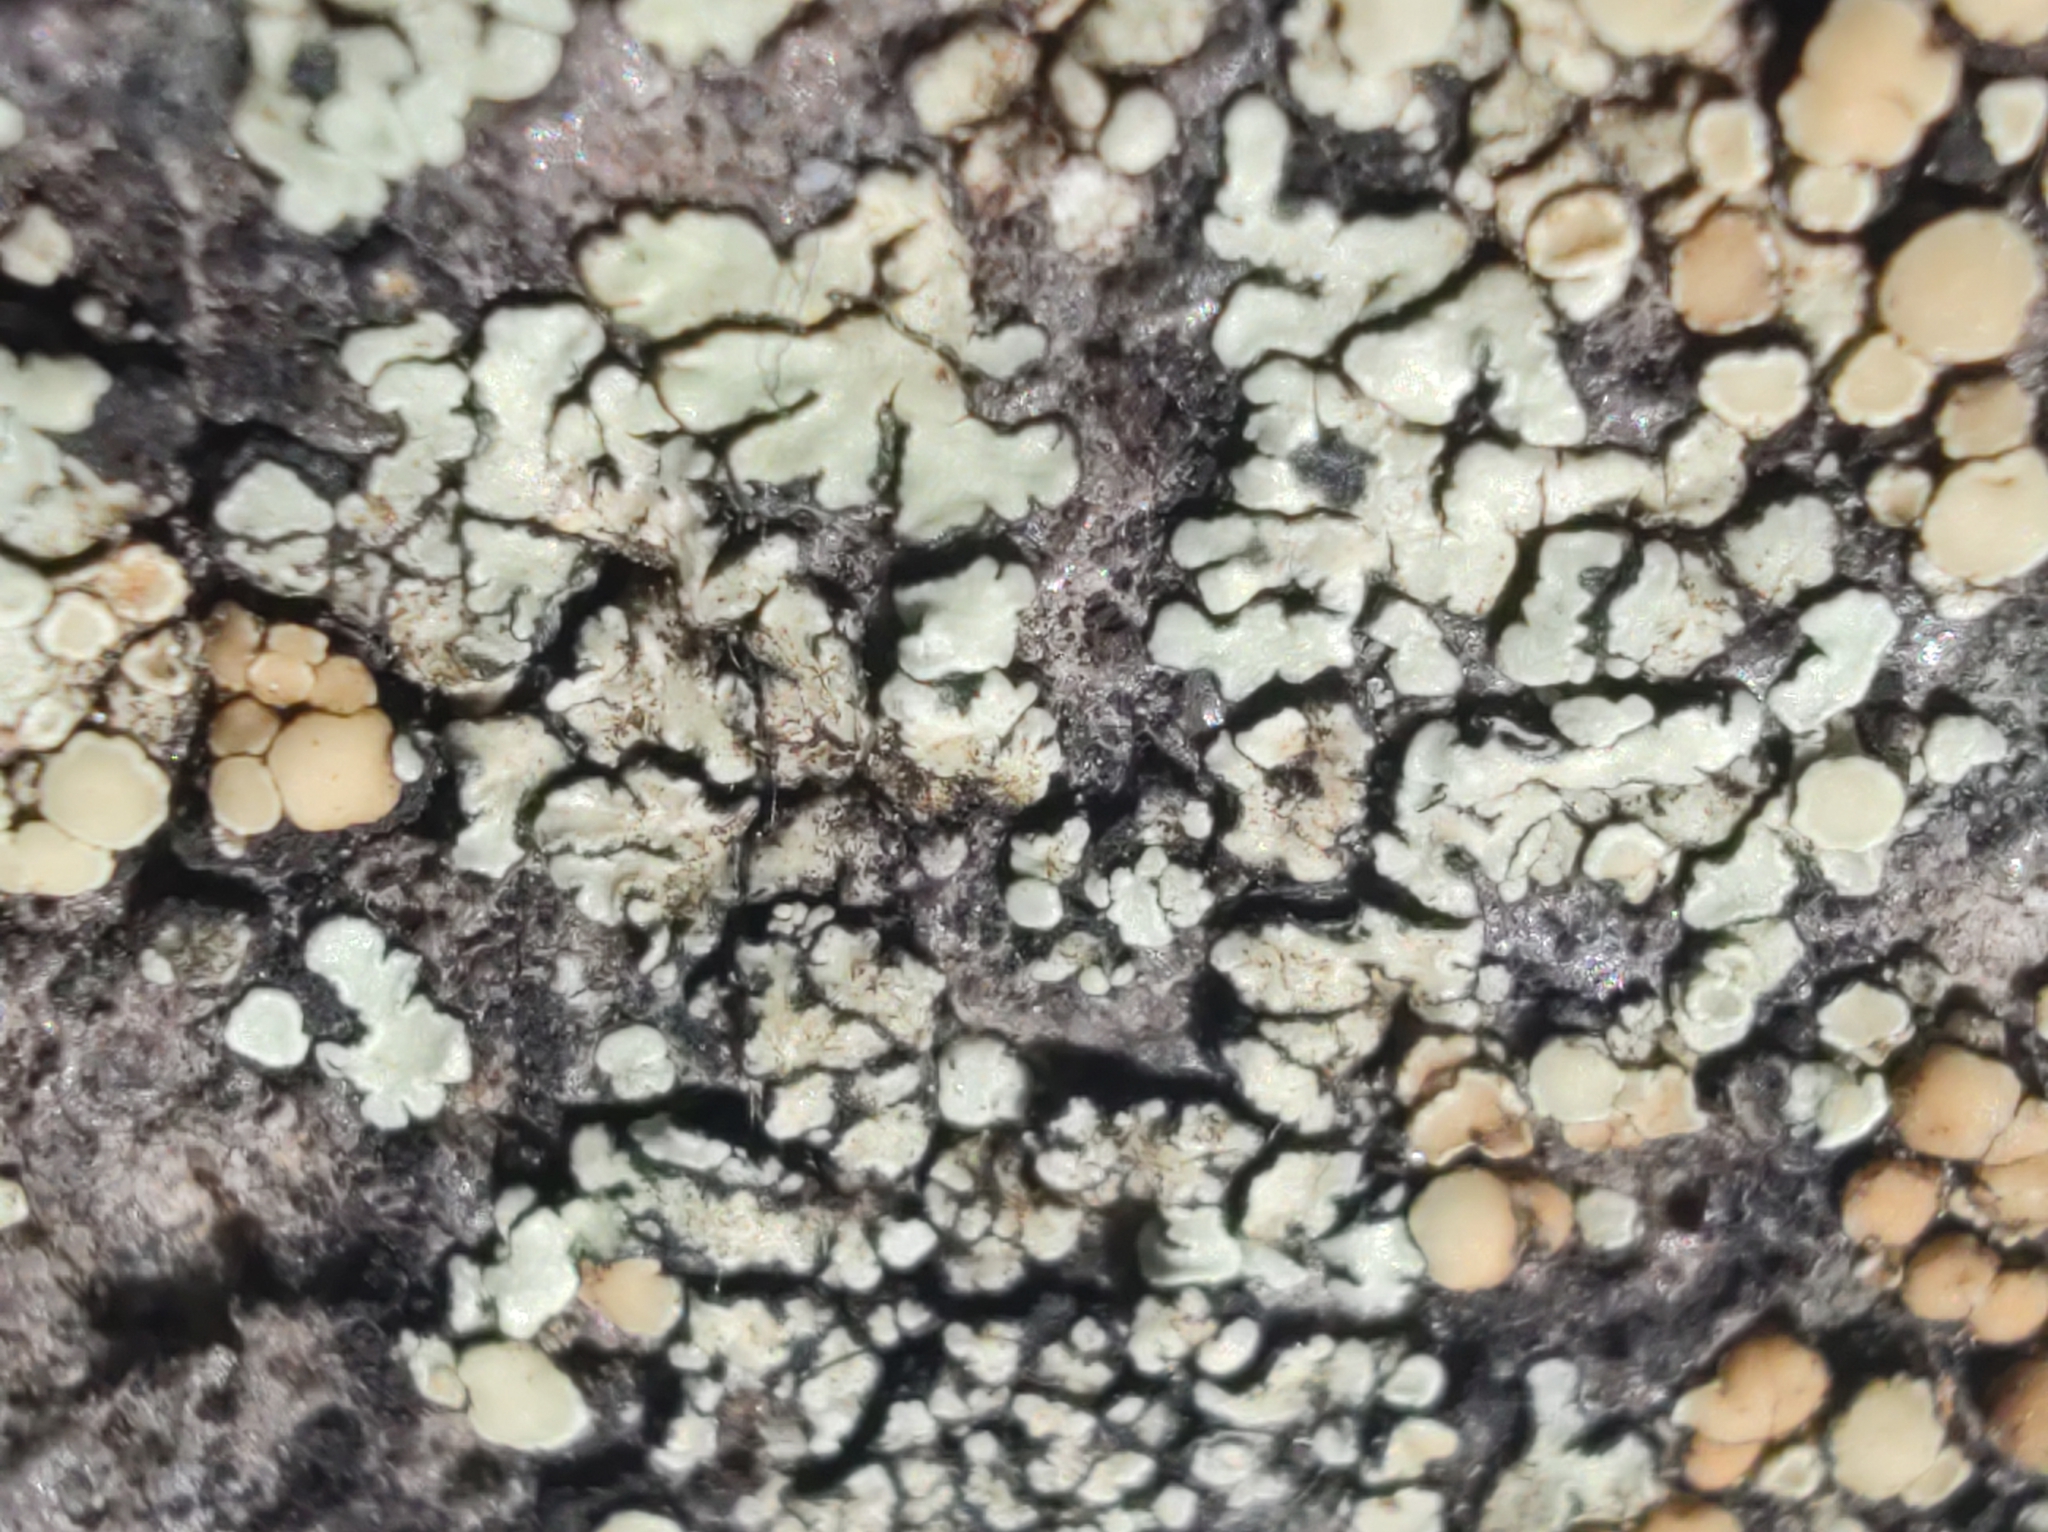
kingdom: Fungi
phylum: Ascomycota
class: Lecanoromycetes
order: Lecanorales
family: Lecanoraceae
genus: Protoparmeliopsis
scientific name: Protoparmeliopsis muralis
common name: Stonewall rim lichen
